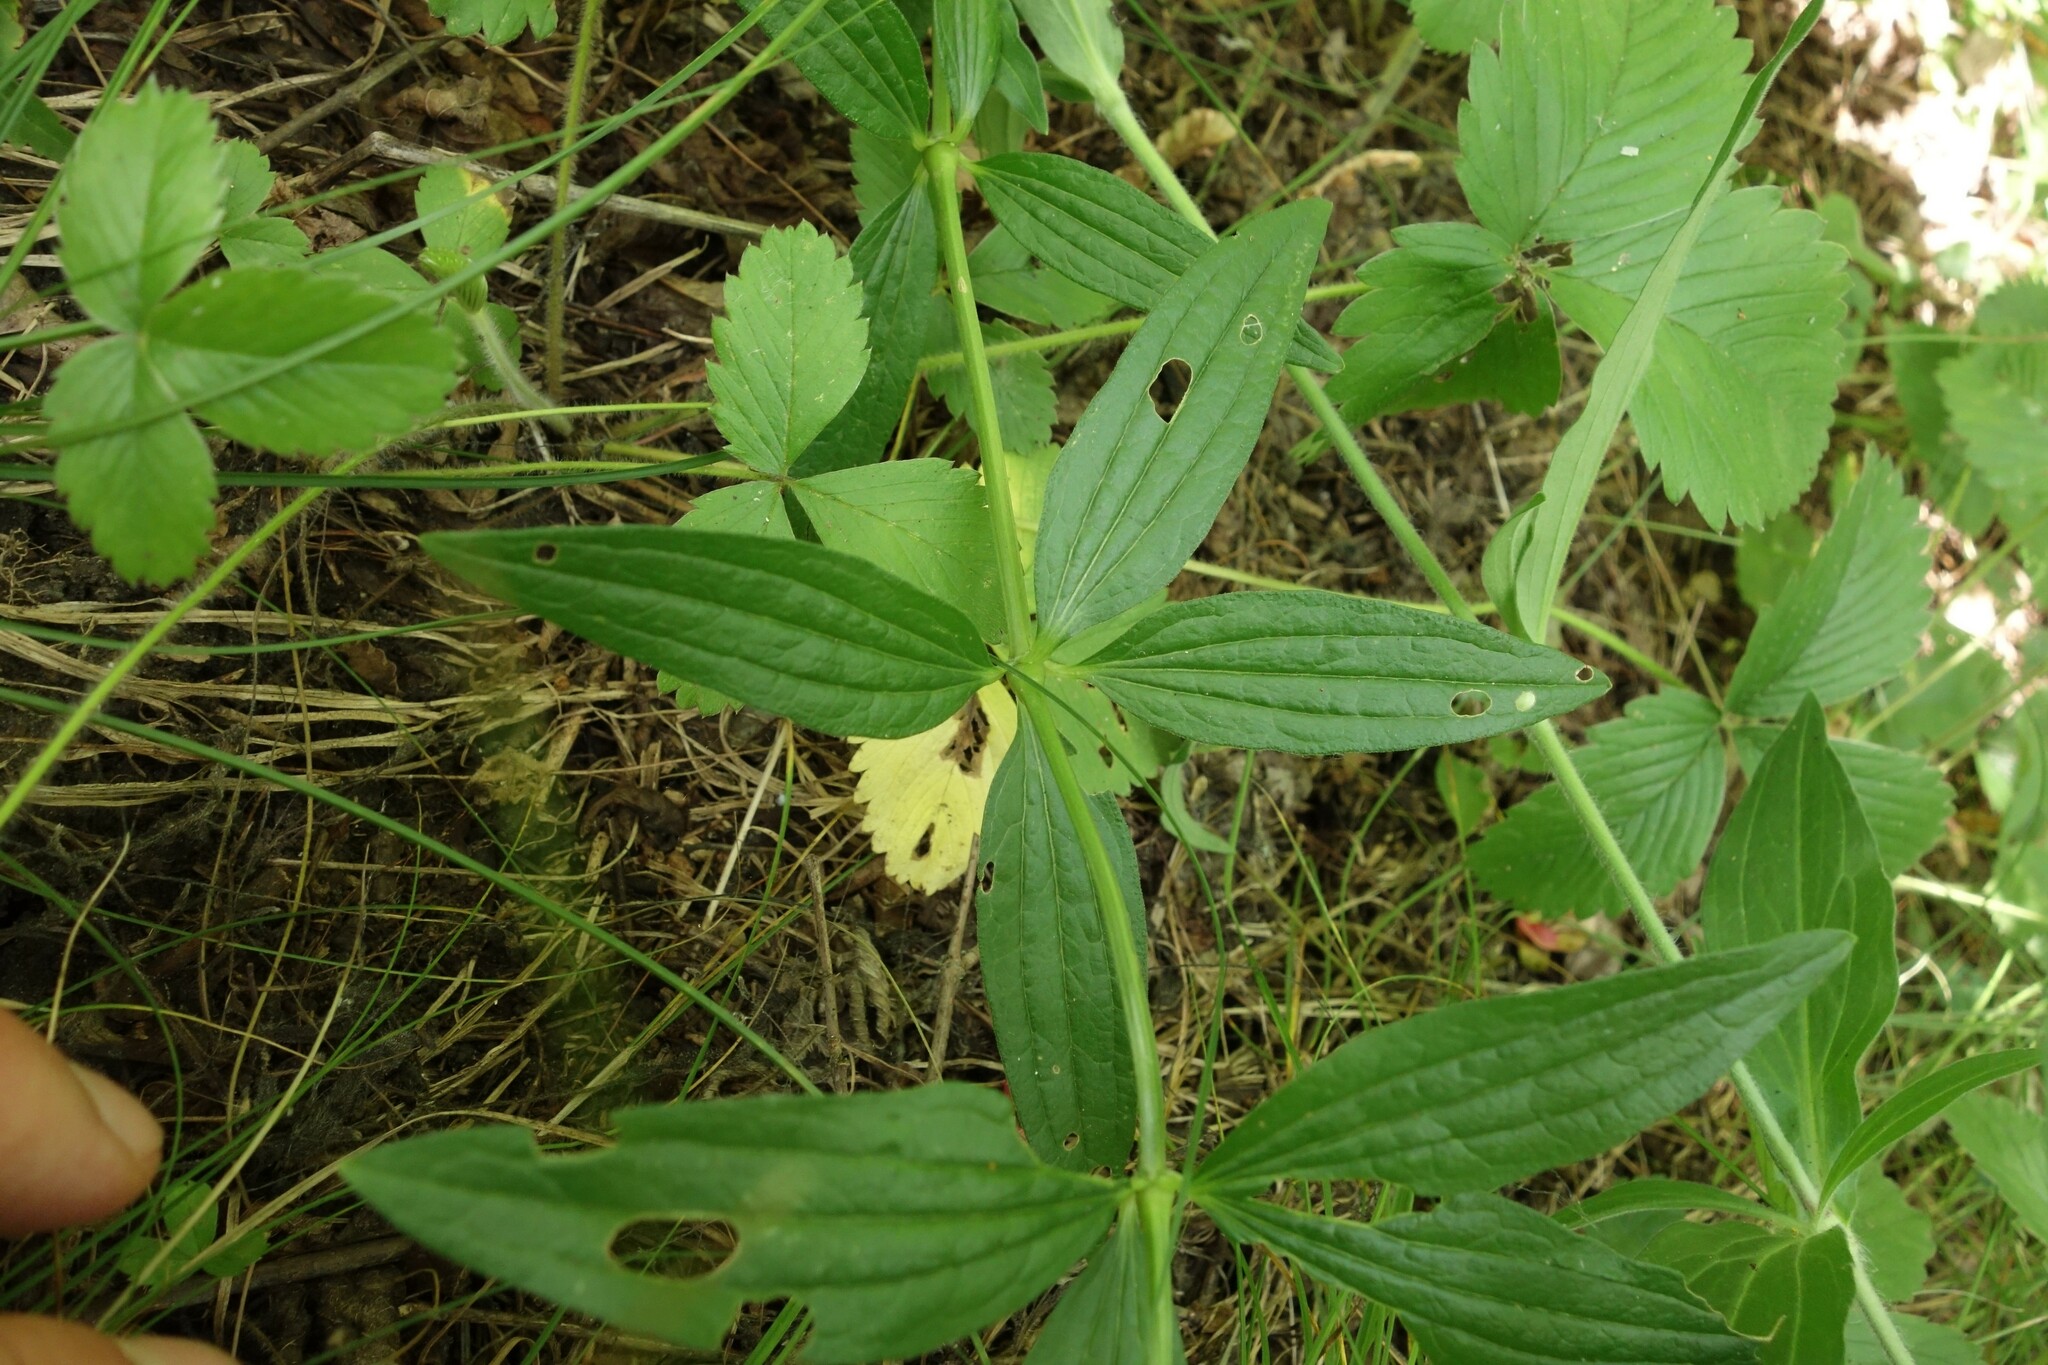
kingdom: Plantae
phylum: Tracheophyta
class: Magnoliopsida
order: Gentianales
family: Rubiaceae
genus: Galium
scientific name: Galium rubioides
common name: European bedstraw
